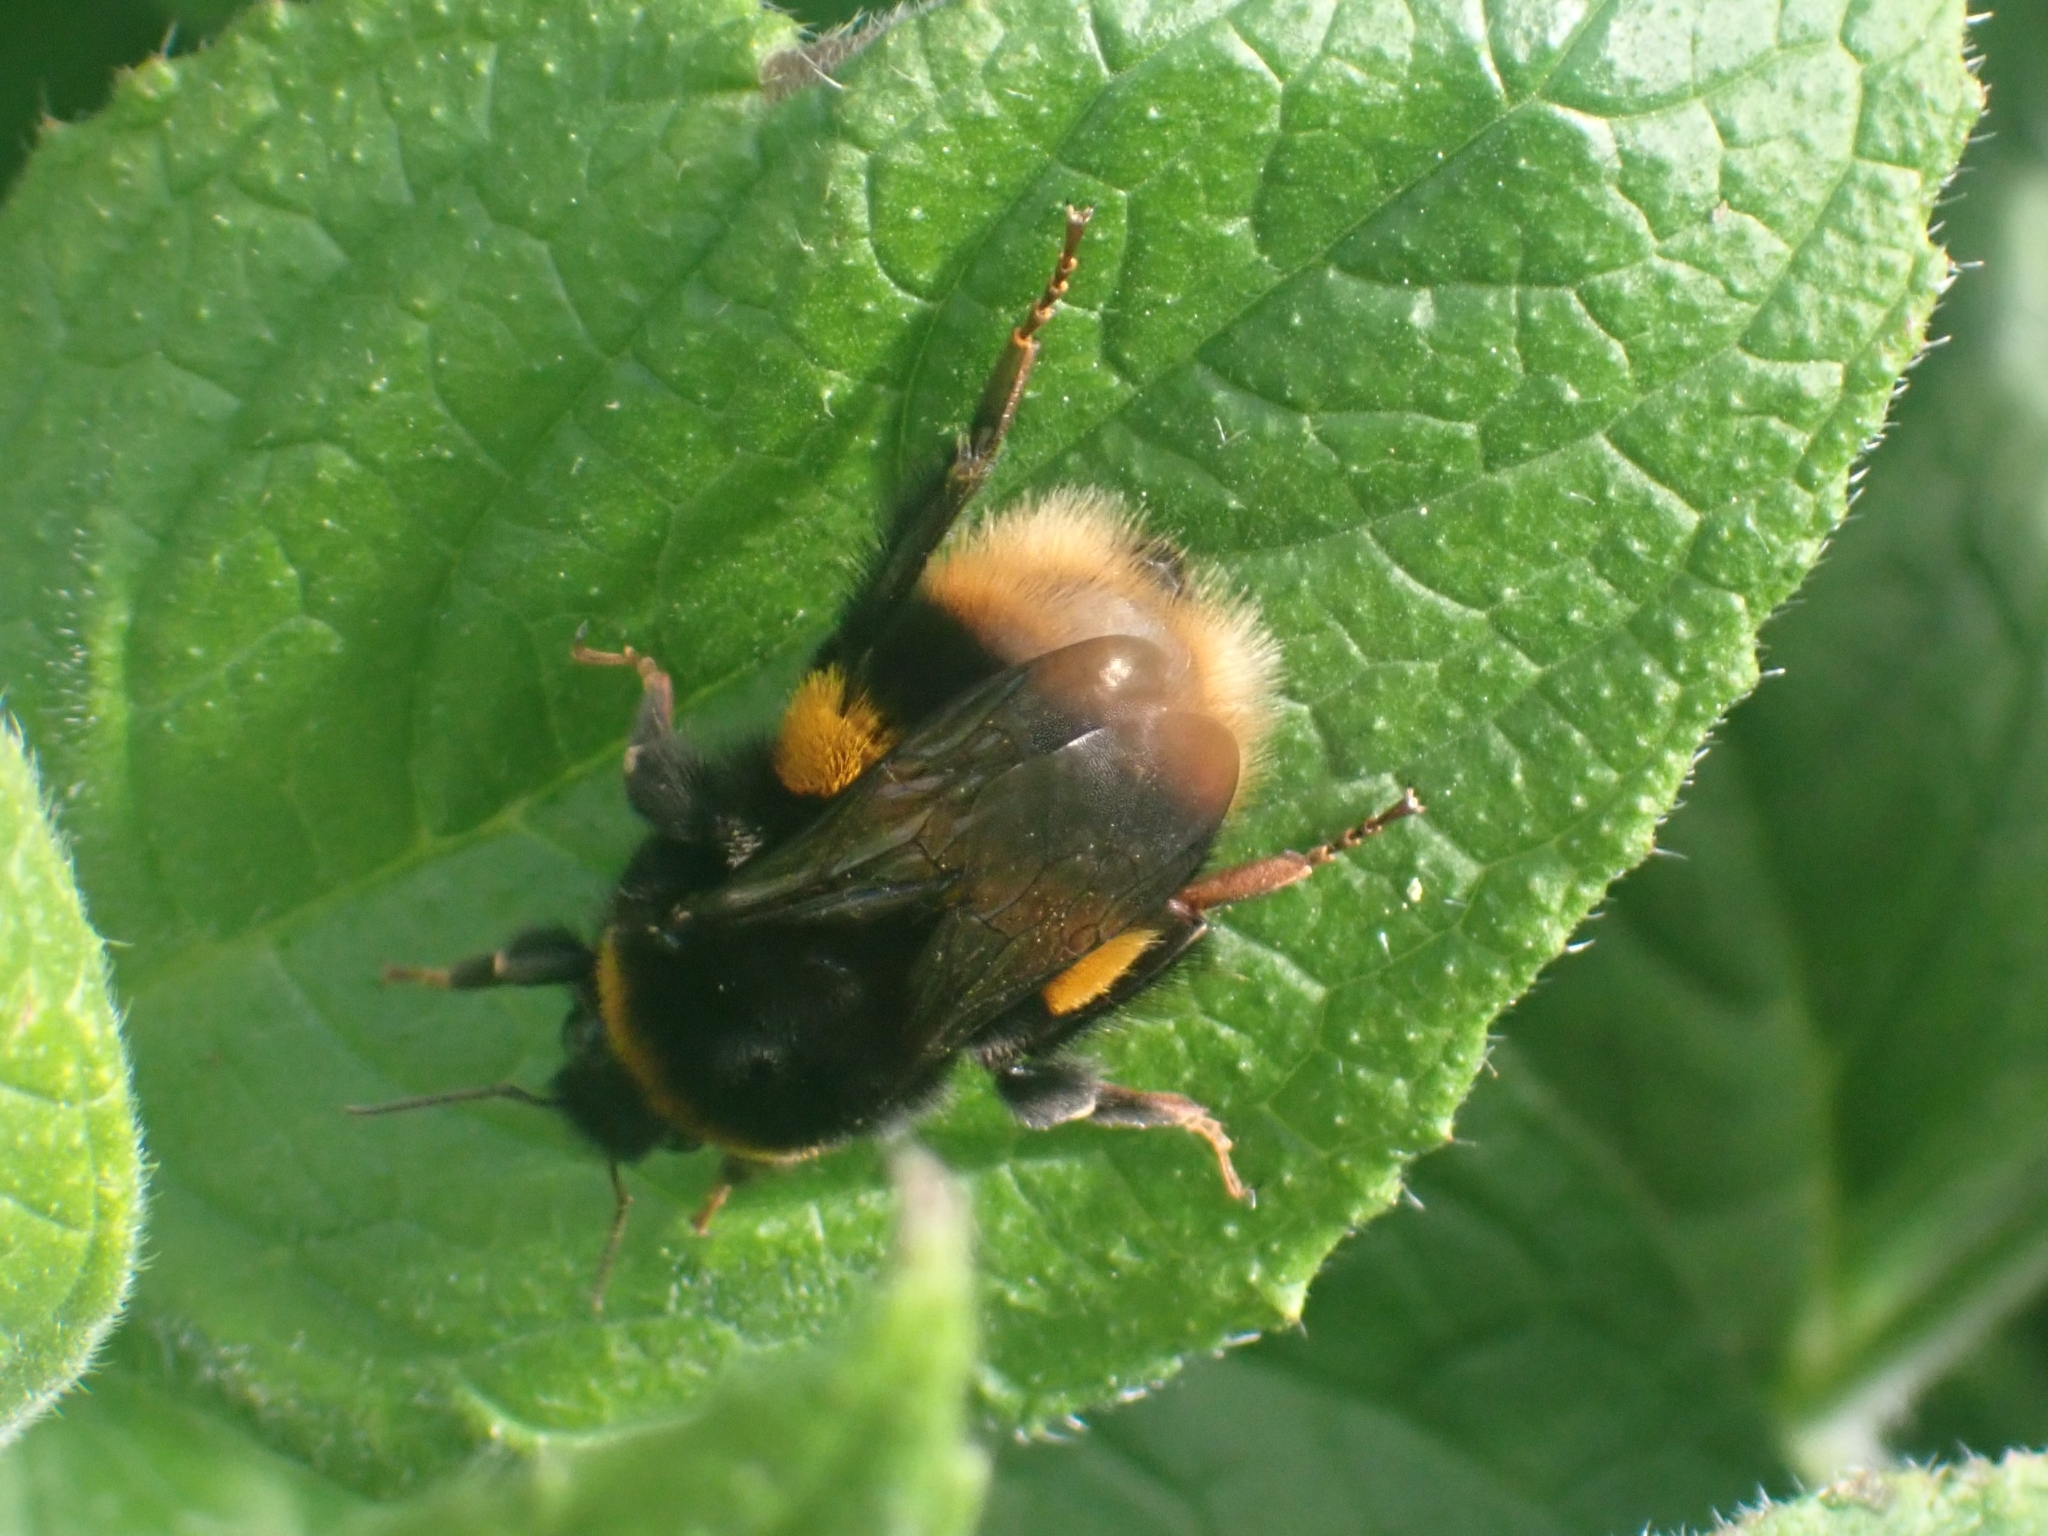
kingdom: Animalia
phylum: Arthropoda
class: Insecta
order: Hymenoptera
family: Apidae
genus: Bombus
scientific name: Bombus terrestris
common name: Buff-tailed bumblebee
